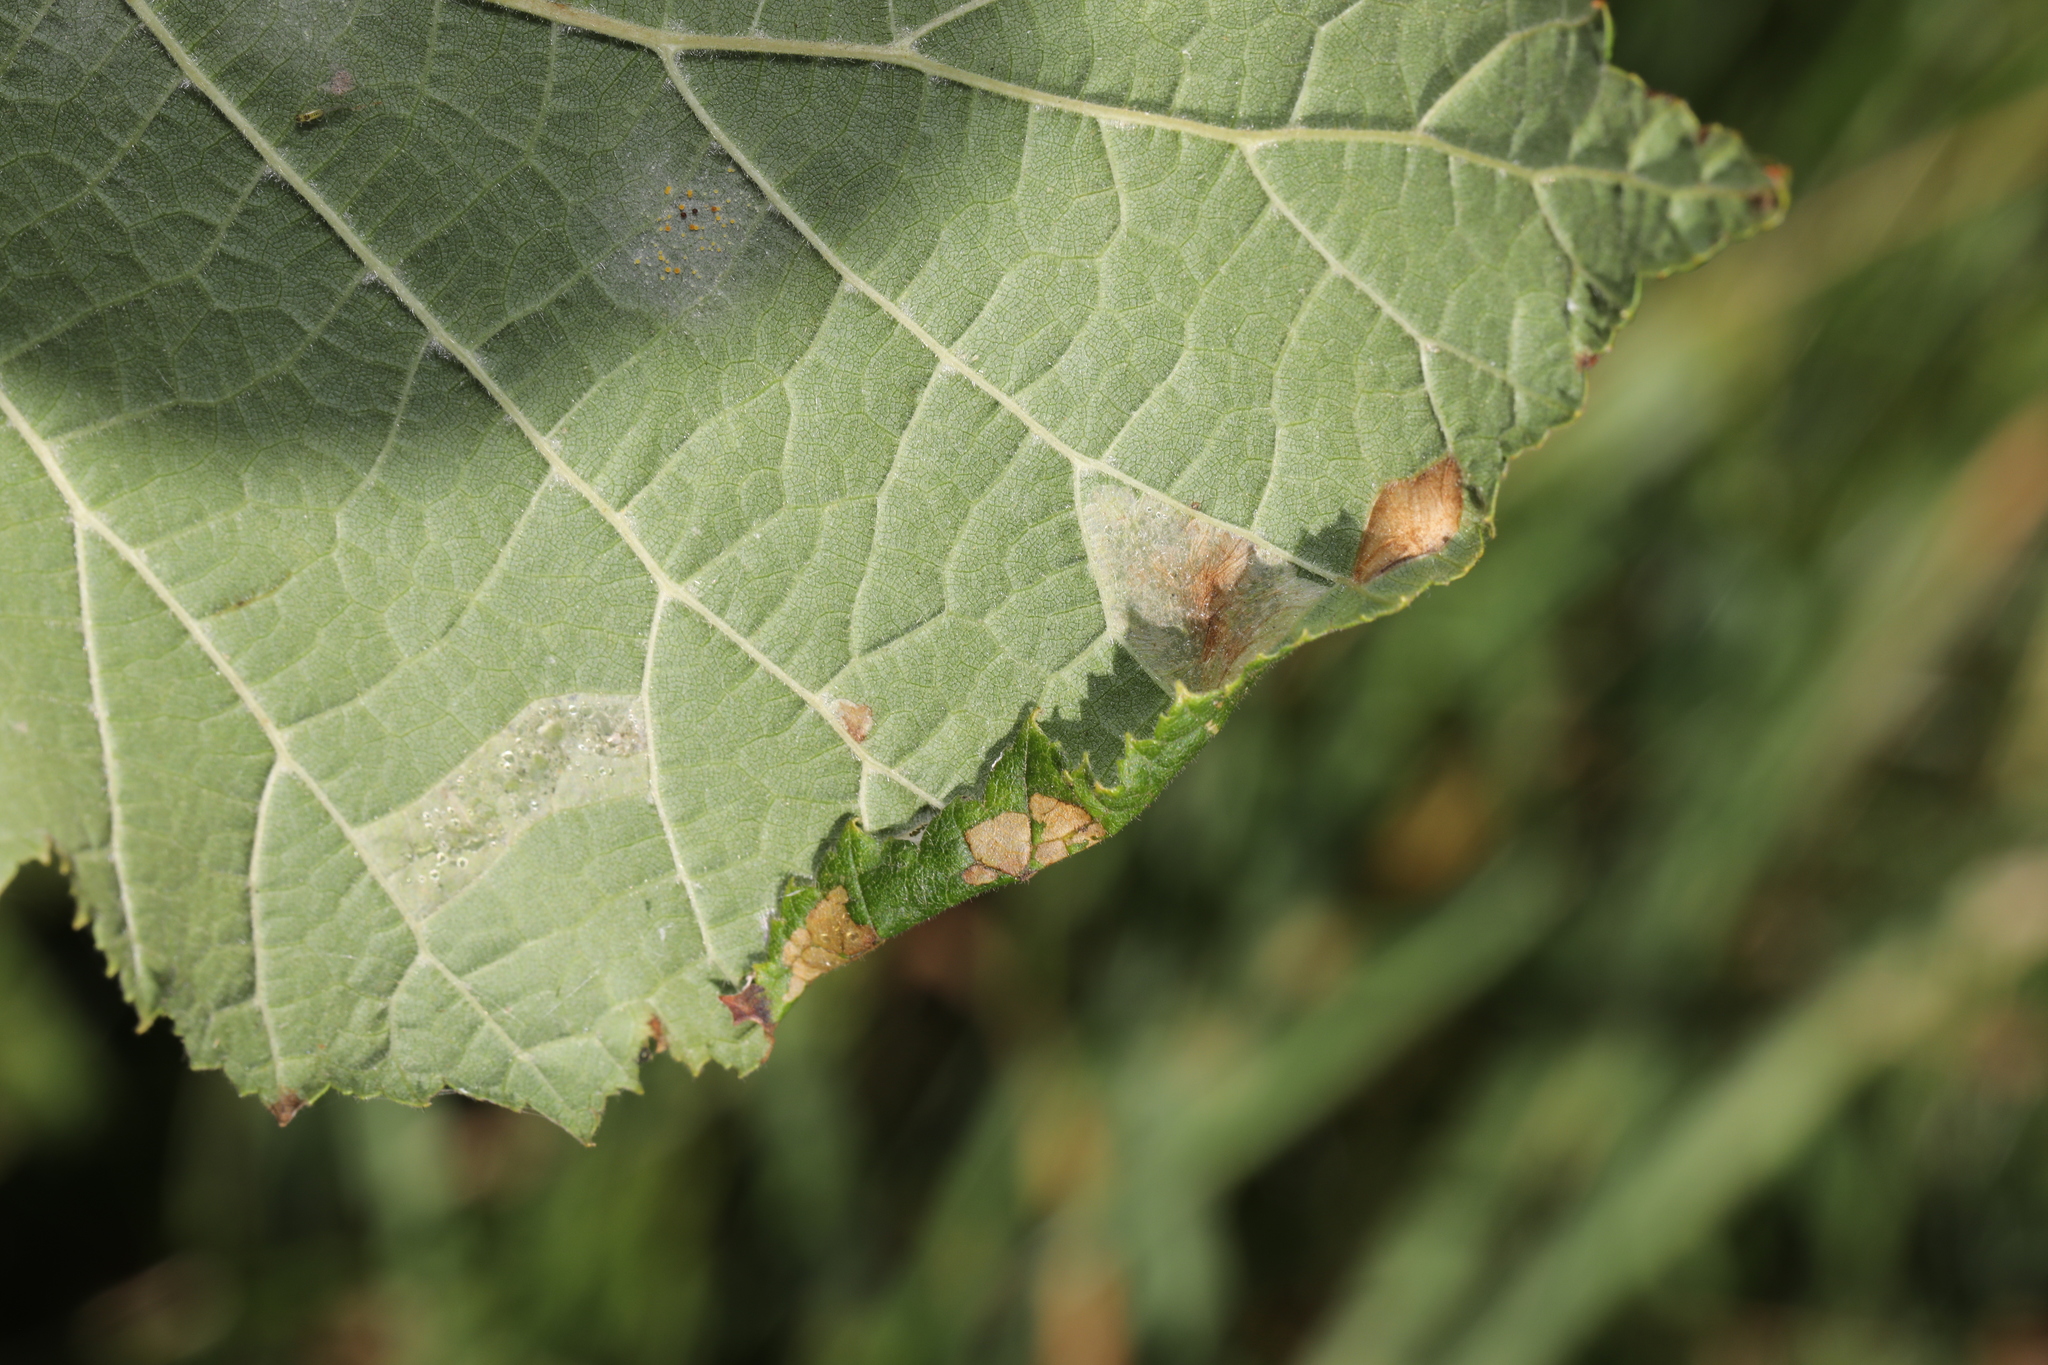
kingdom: Animalia
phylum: Arthropoda
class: Insecta
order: Lepidoptera
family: Gracillariidae
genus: Parornix
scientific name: Parornix devoniella
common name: Hazel slender
